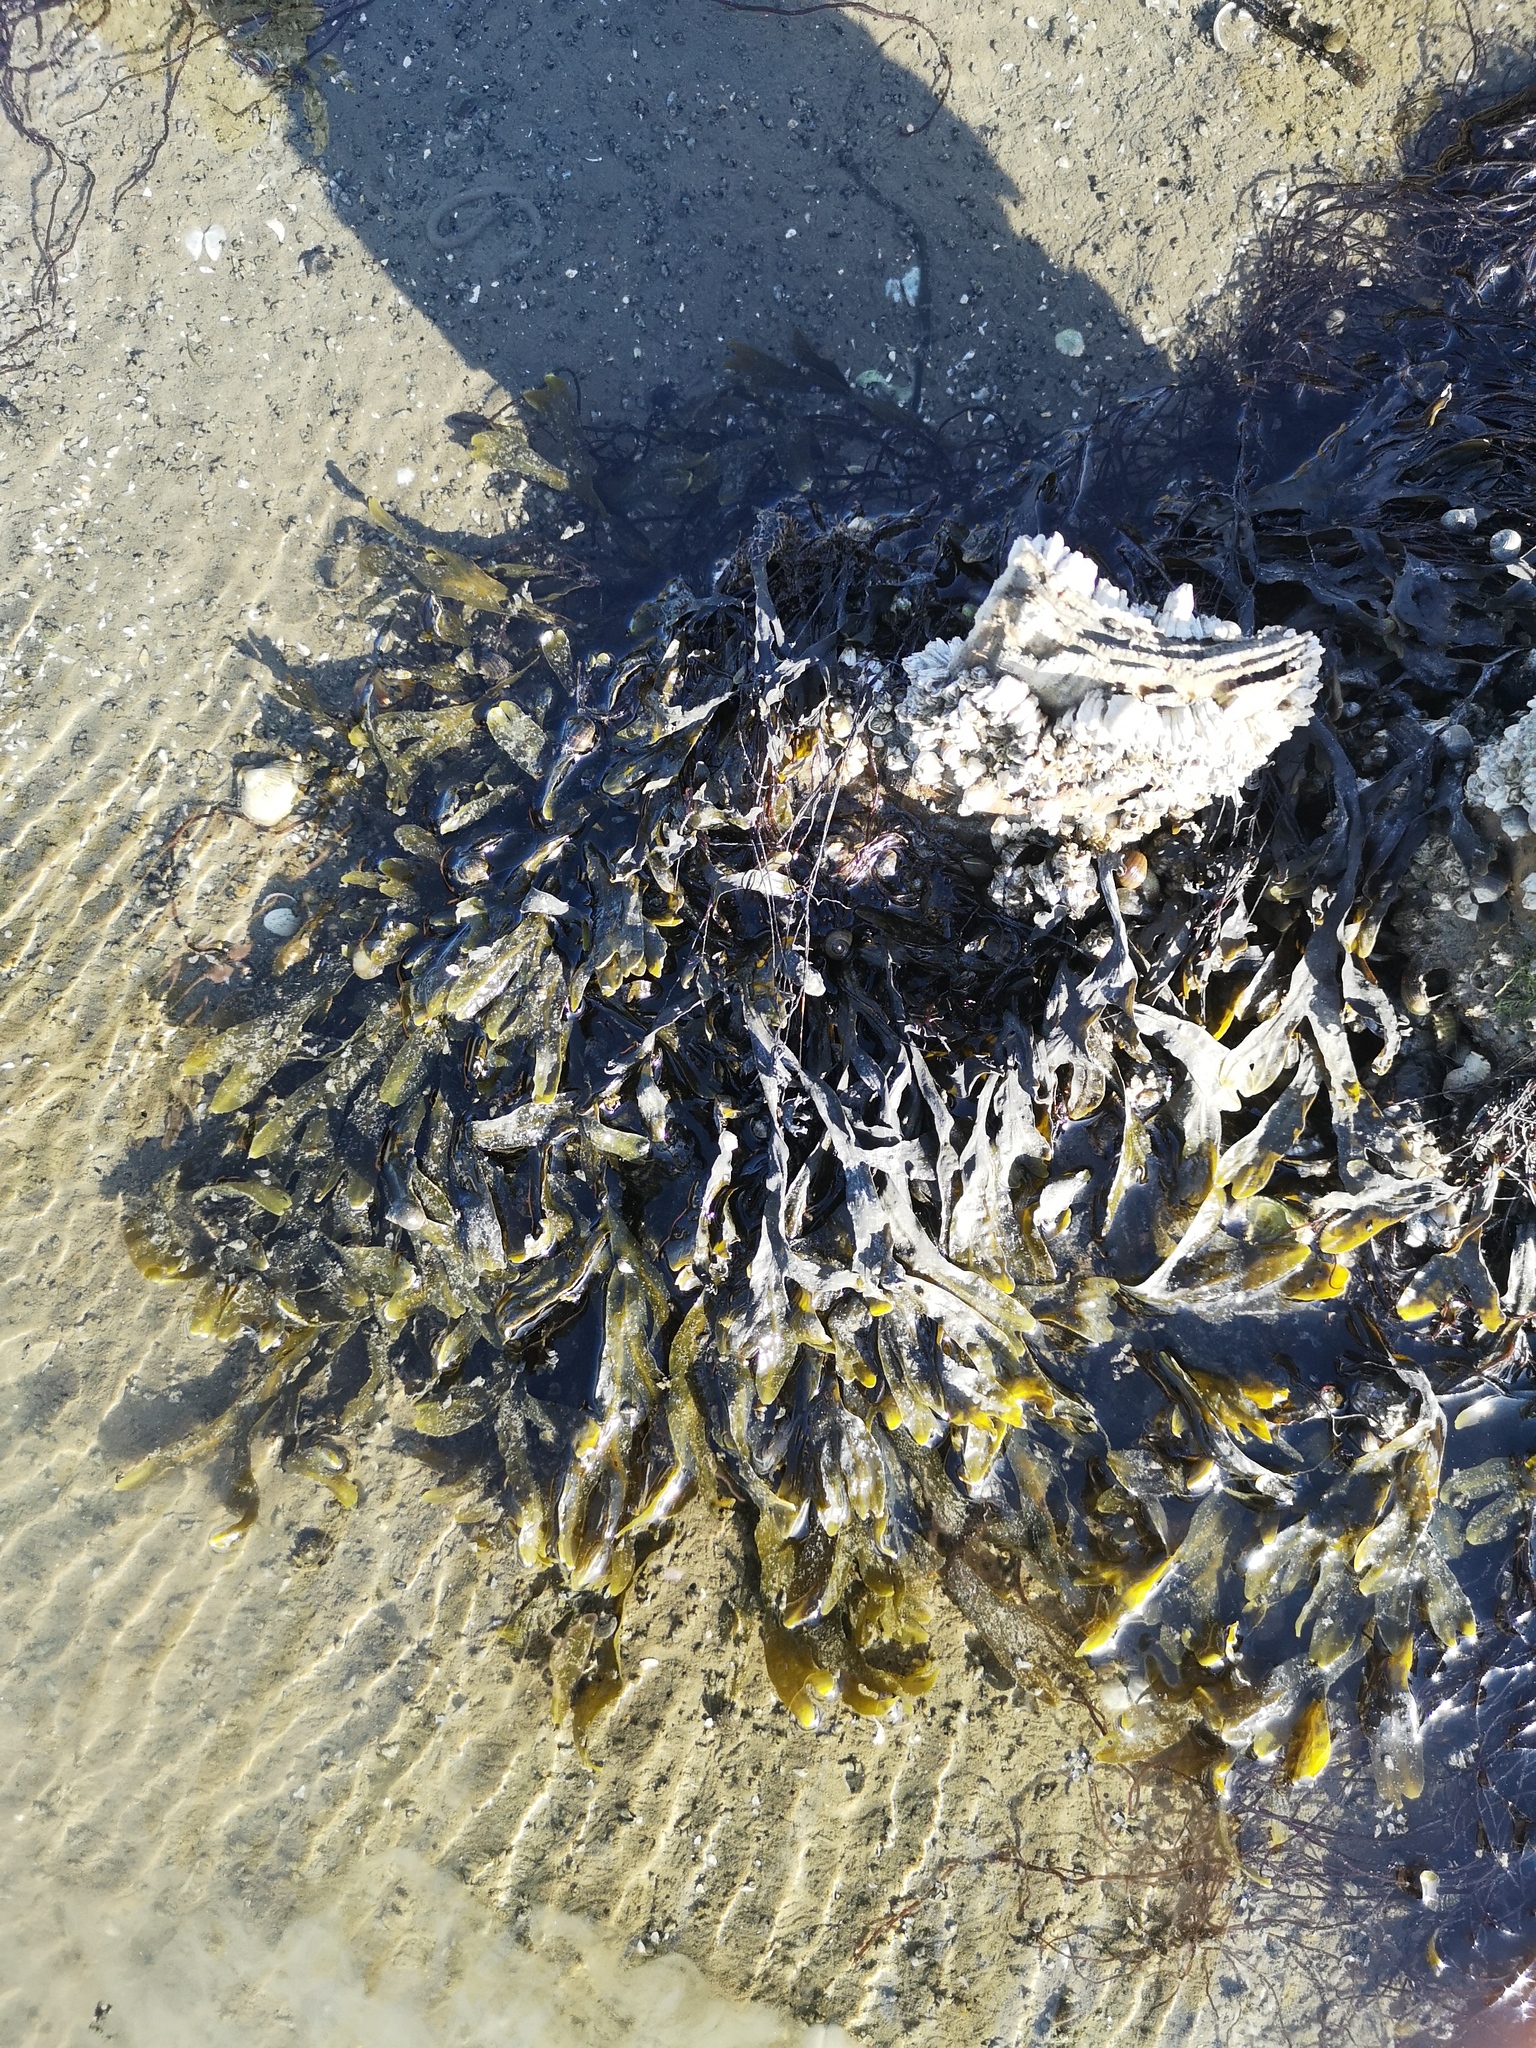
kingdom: Chromista
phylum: Ochrophyta
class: Phaeophyceae
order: Fucales
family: Fucaceae
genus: Fucus
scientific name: Fucus vesiculosus
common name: Bladder wrack
